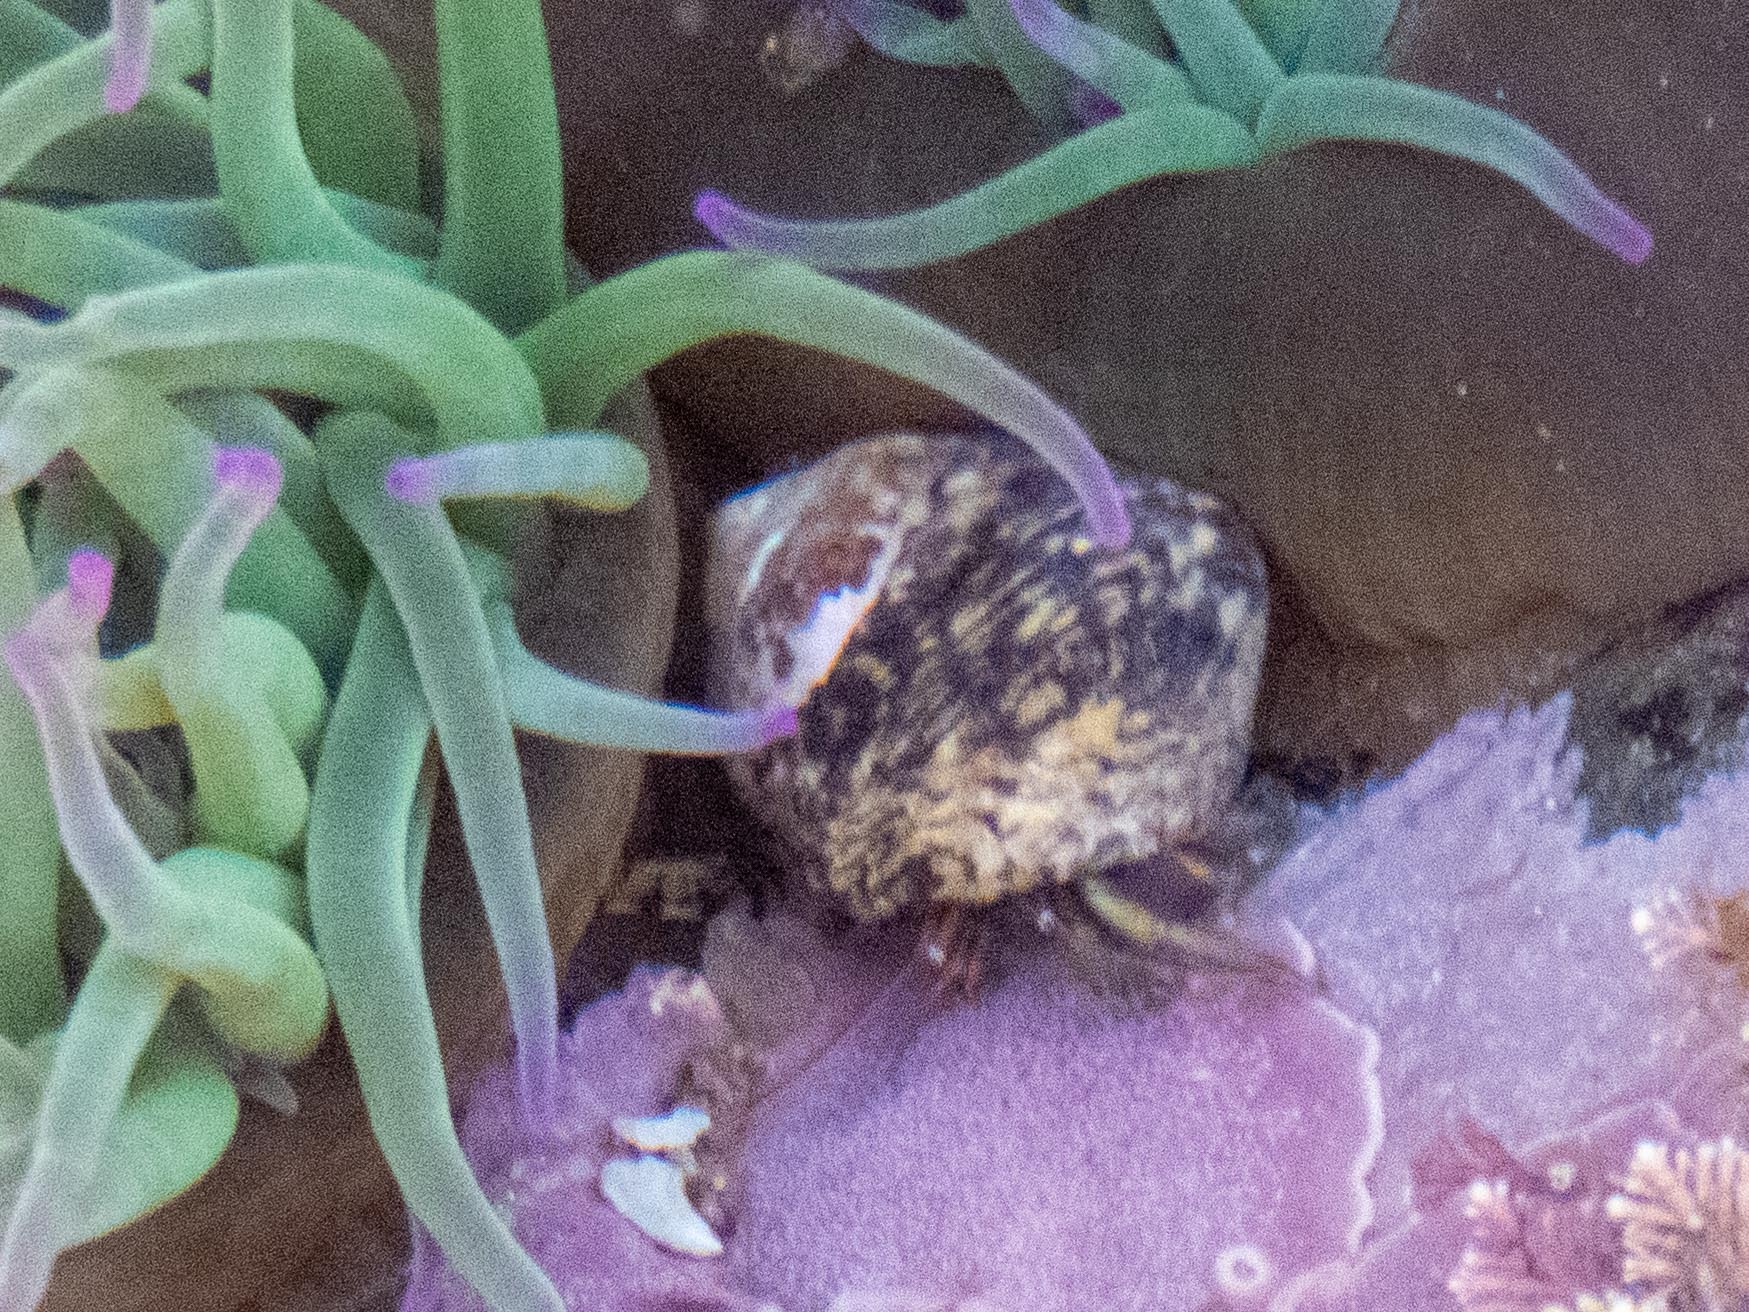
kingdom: Animalia
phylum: Arthropoda
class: Malacostraca
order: Decapoda
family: Diogenidae
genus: Clibanarius
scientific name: Clibanarius erythropus
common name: Hermit crab
